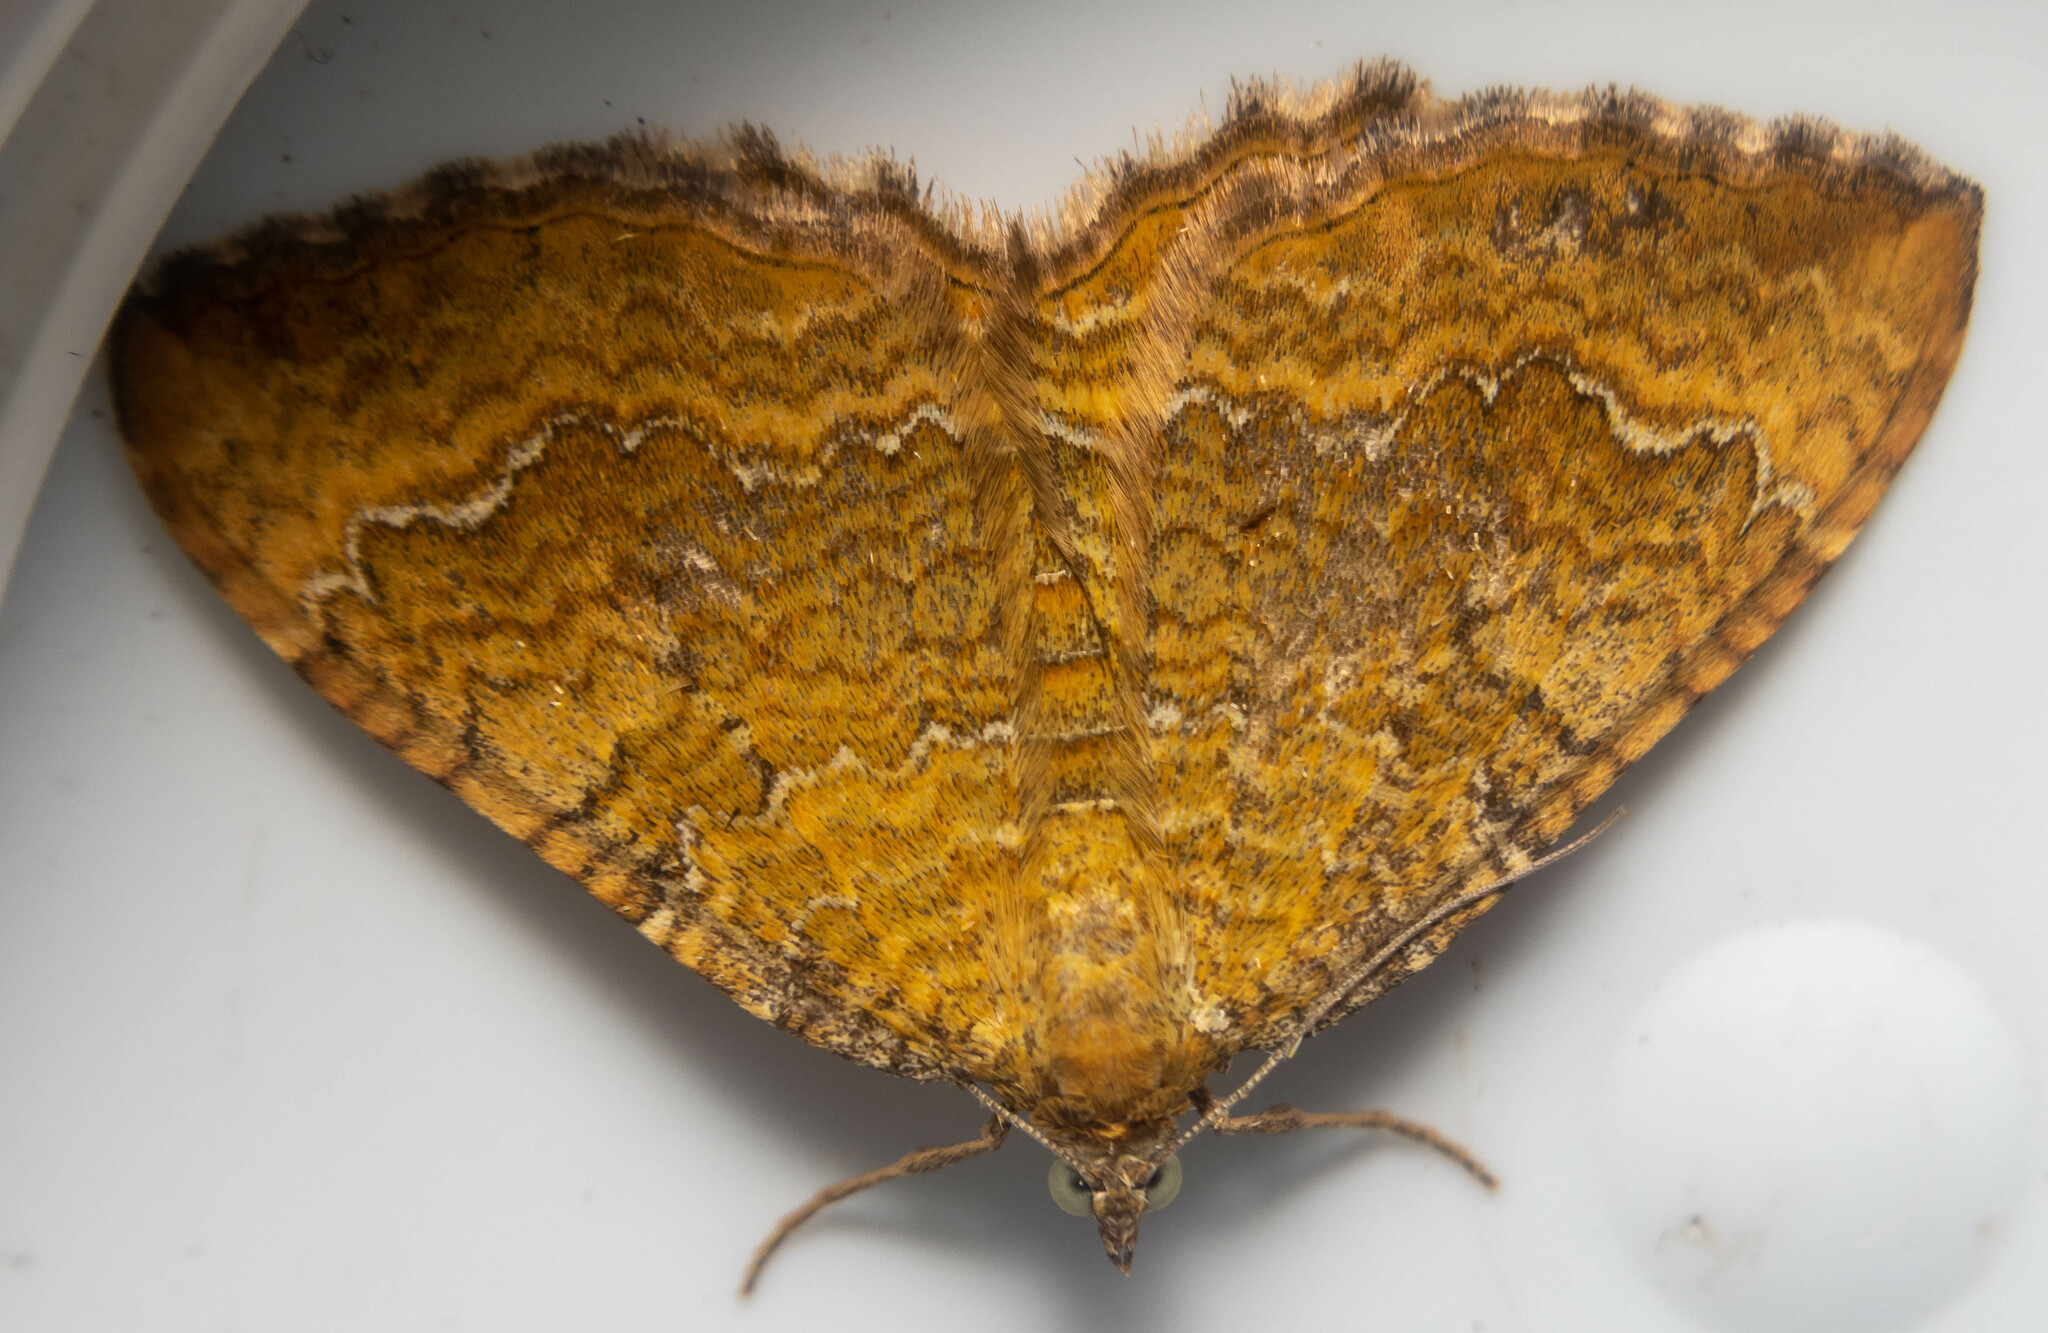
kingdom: Animalia
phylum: Arthropoda
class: Insecta
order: Lepidoptera
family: Geometridae
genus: Camptogramma
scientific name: Camptogramma bilineata
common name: Yellow shell
